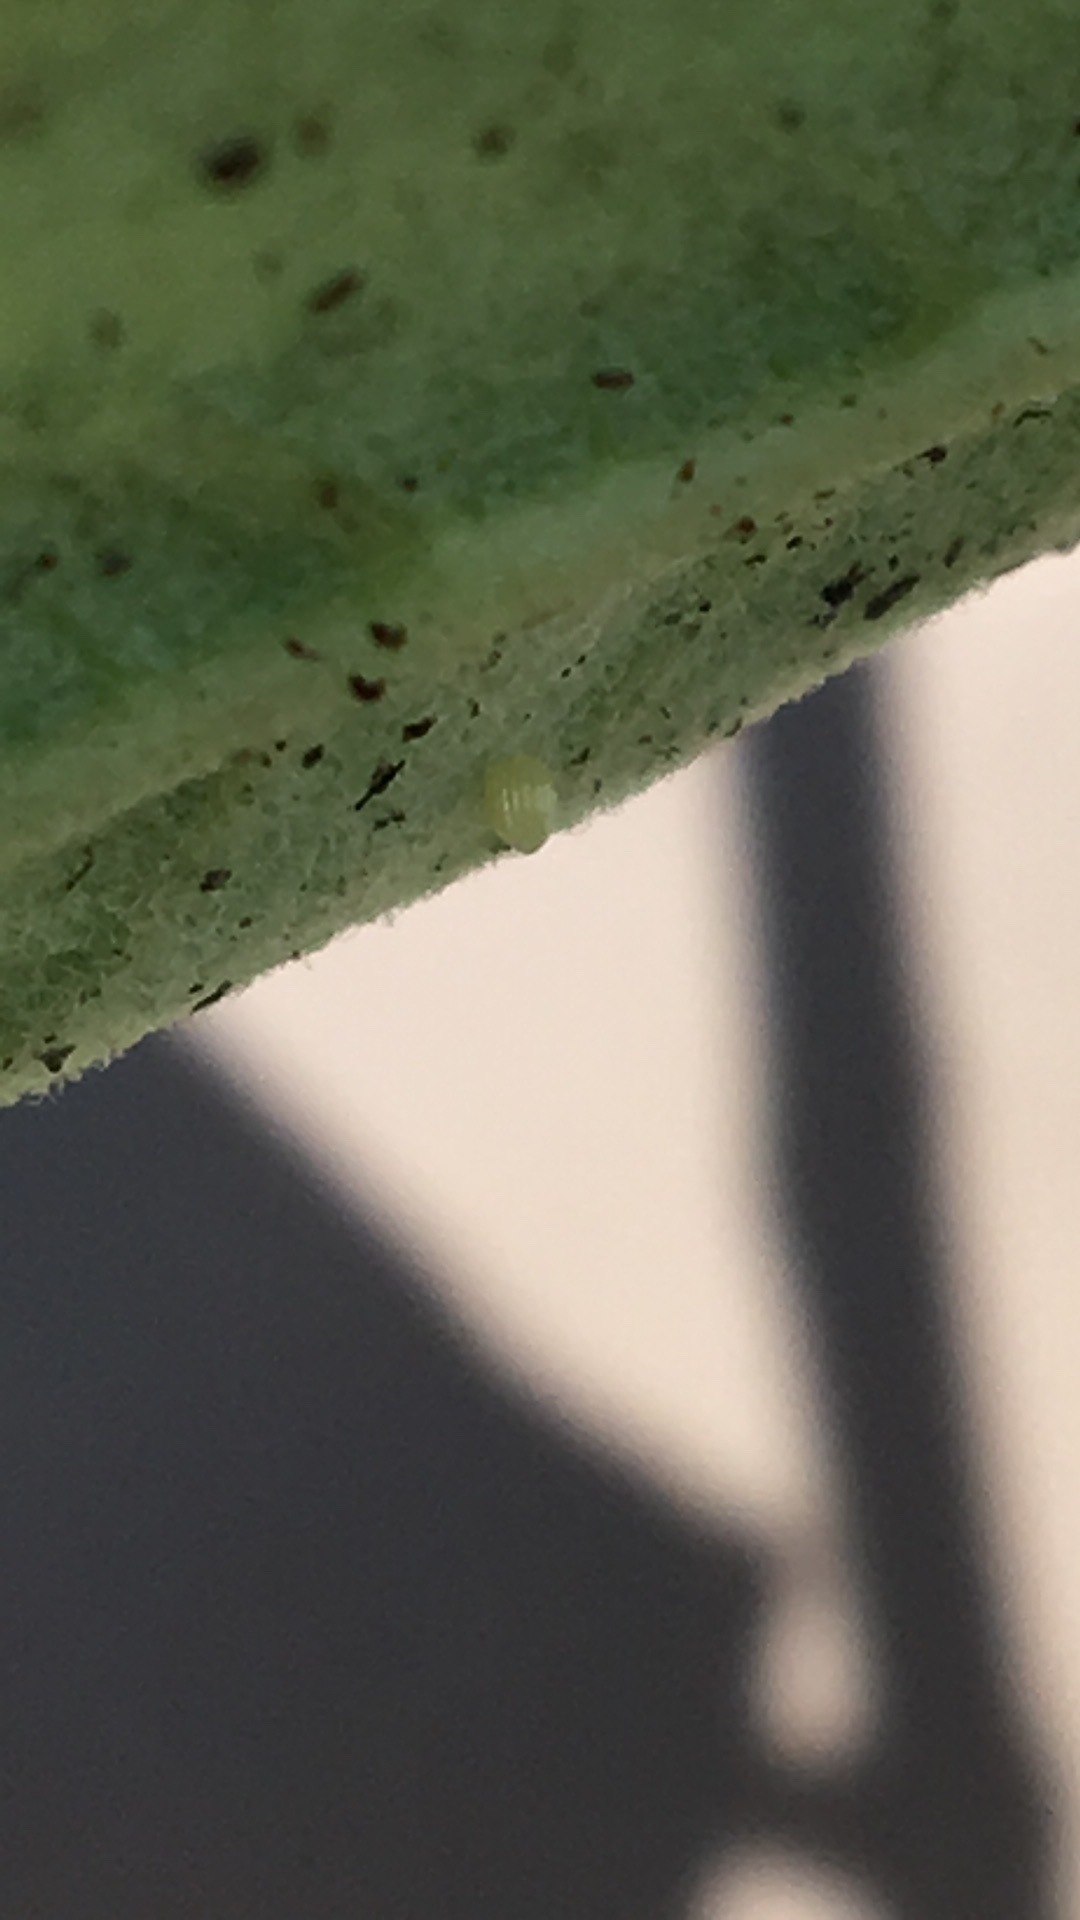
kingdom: Animalia
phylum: Arthropoda
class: Insecta
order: Lepidoptera
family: Nymphalidae
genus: Danaus
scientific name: Danaus plexippus
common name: Monarch
